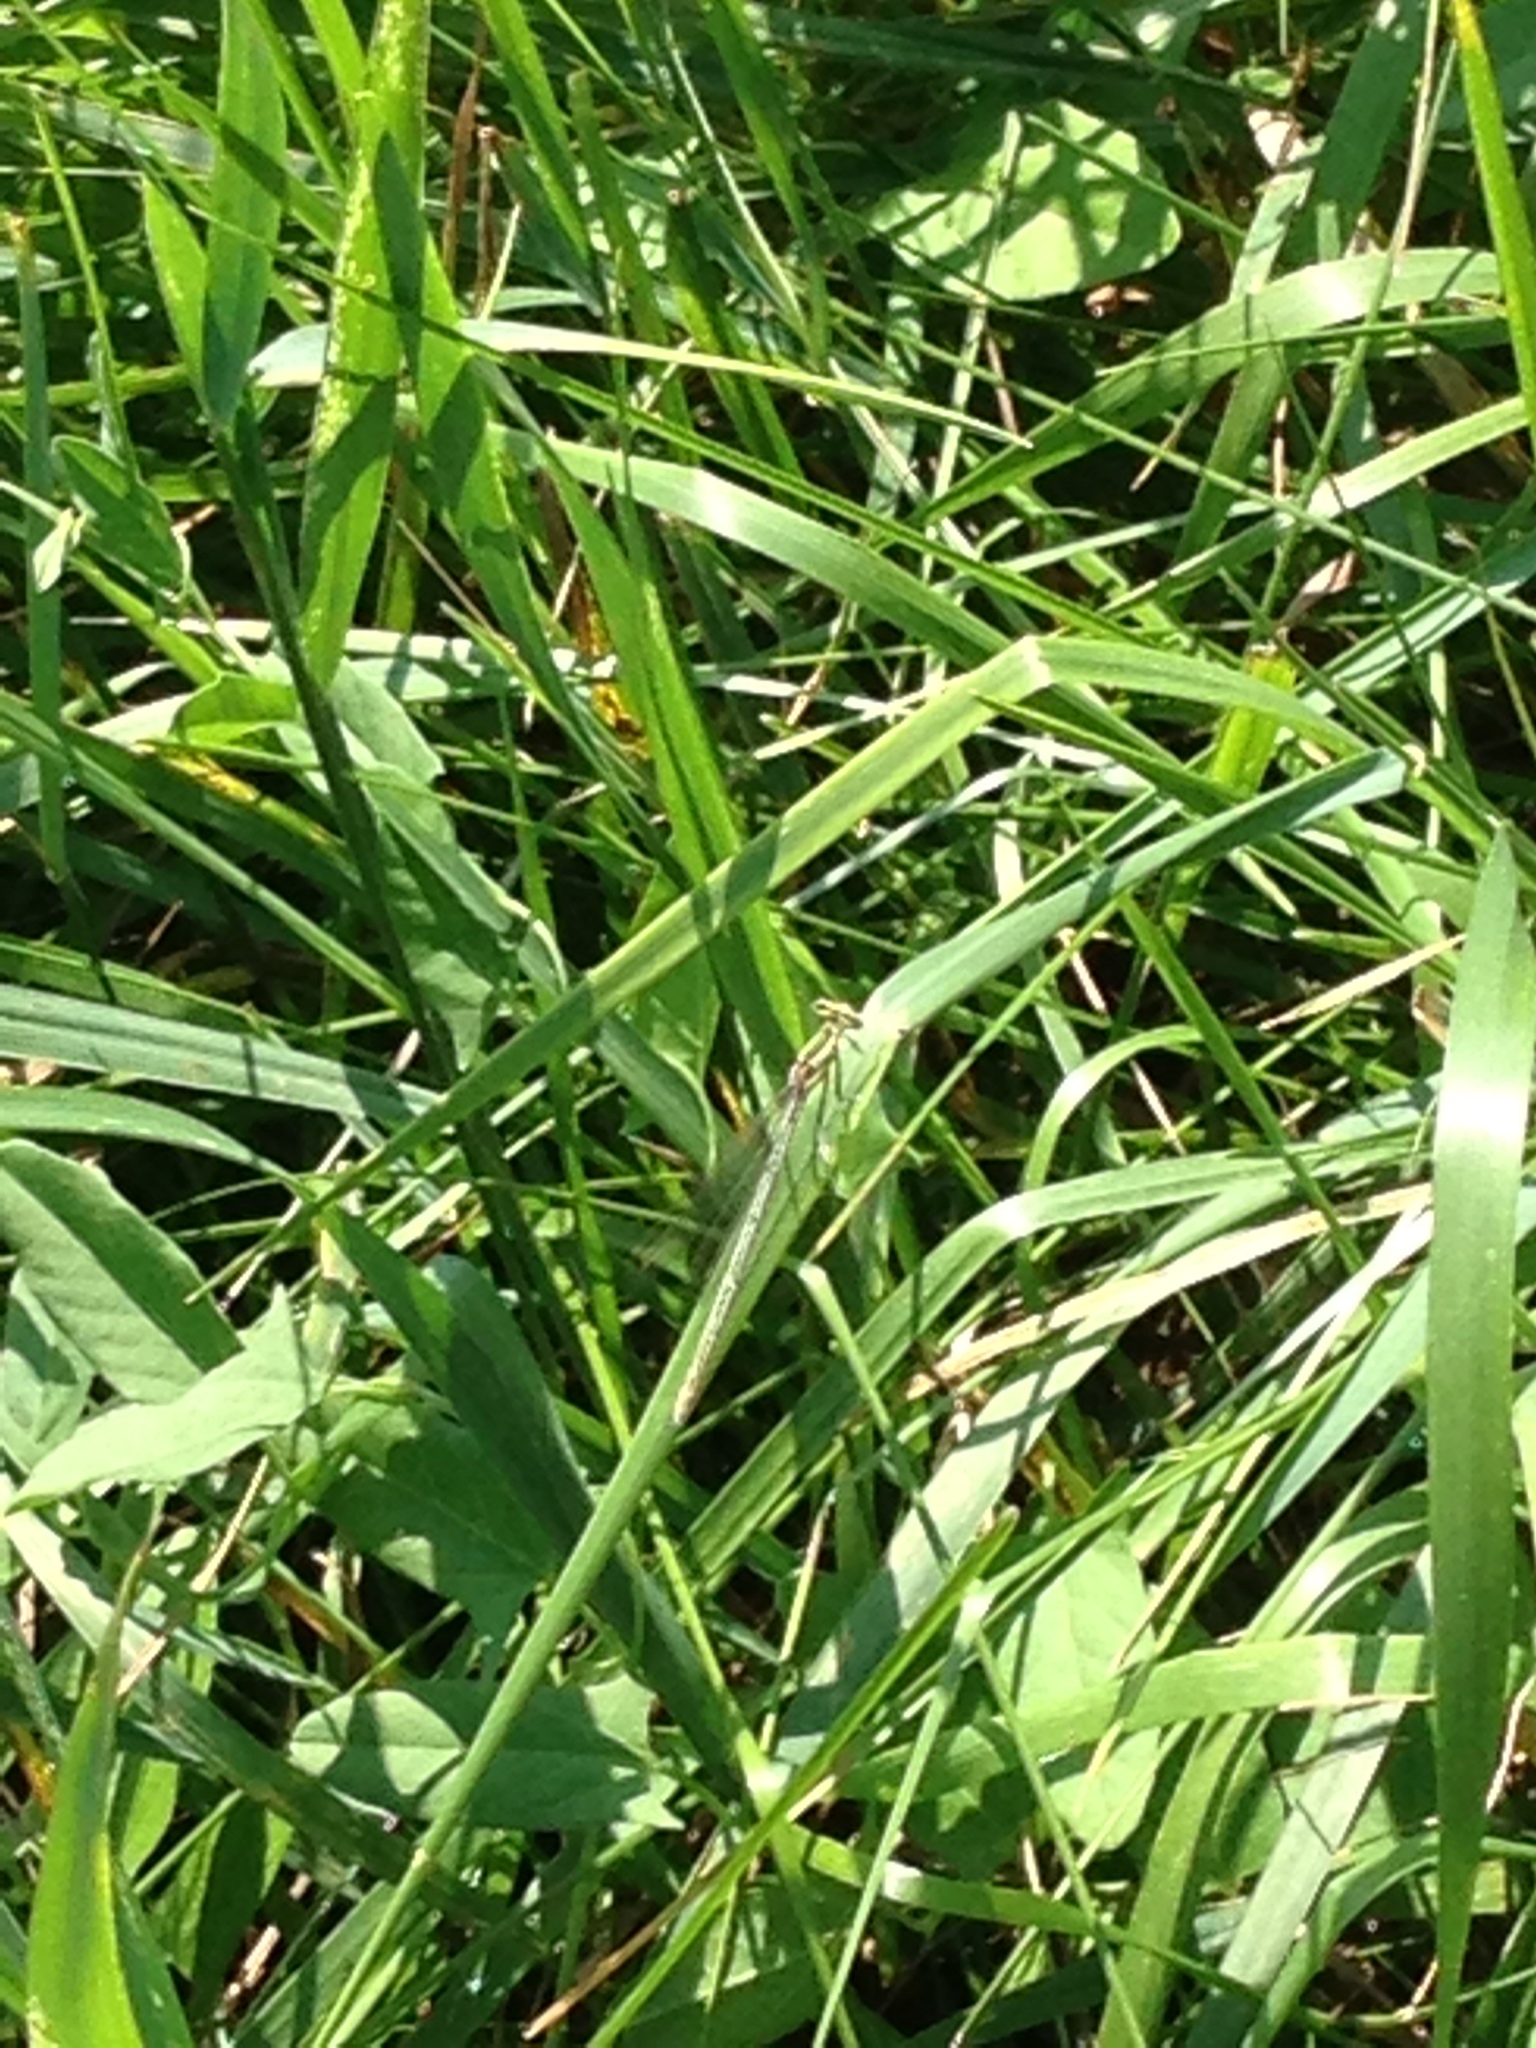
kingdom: Animalia
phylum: Arthropoda
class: Insecta
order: Odonata
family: Platycnemididae
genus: Platycnemis
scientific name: Platycnemis pennipes
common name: White-legged damselfly
